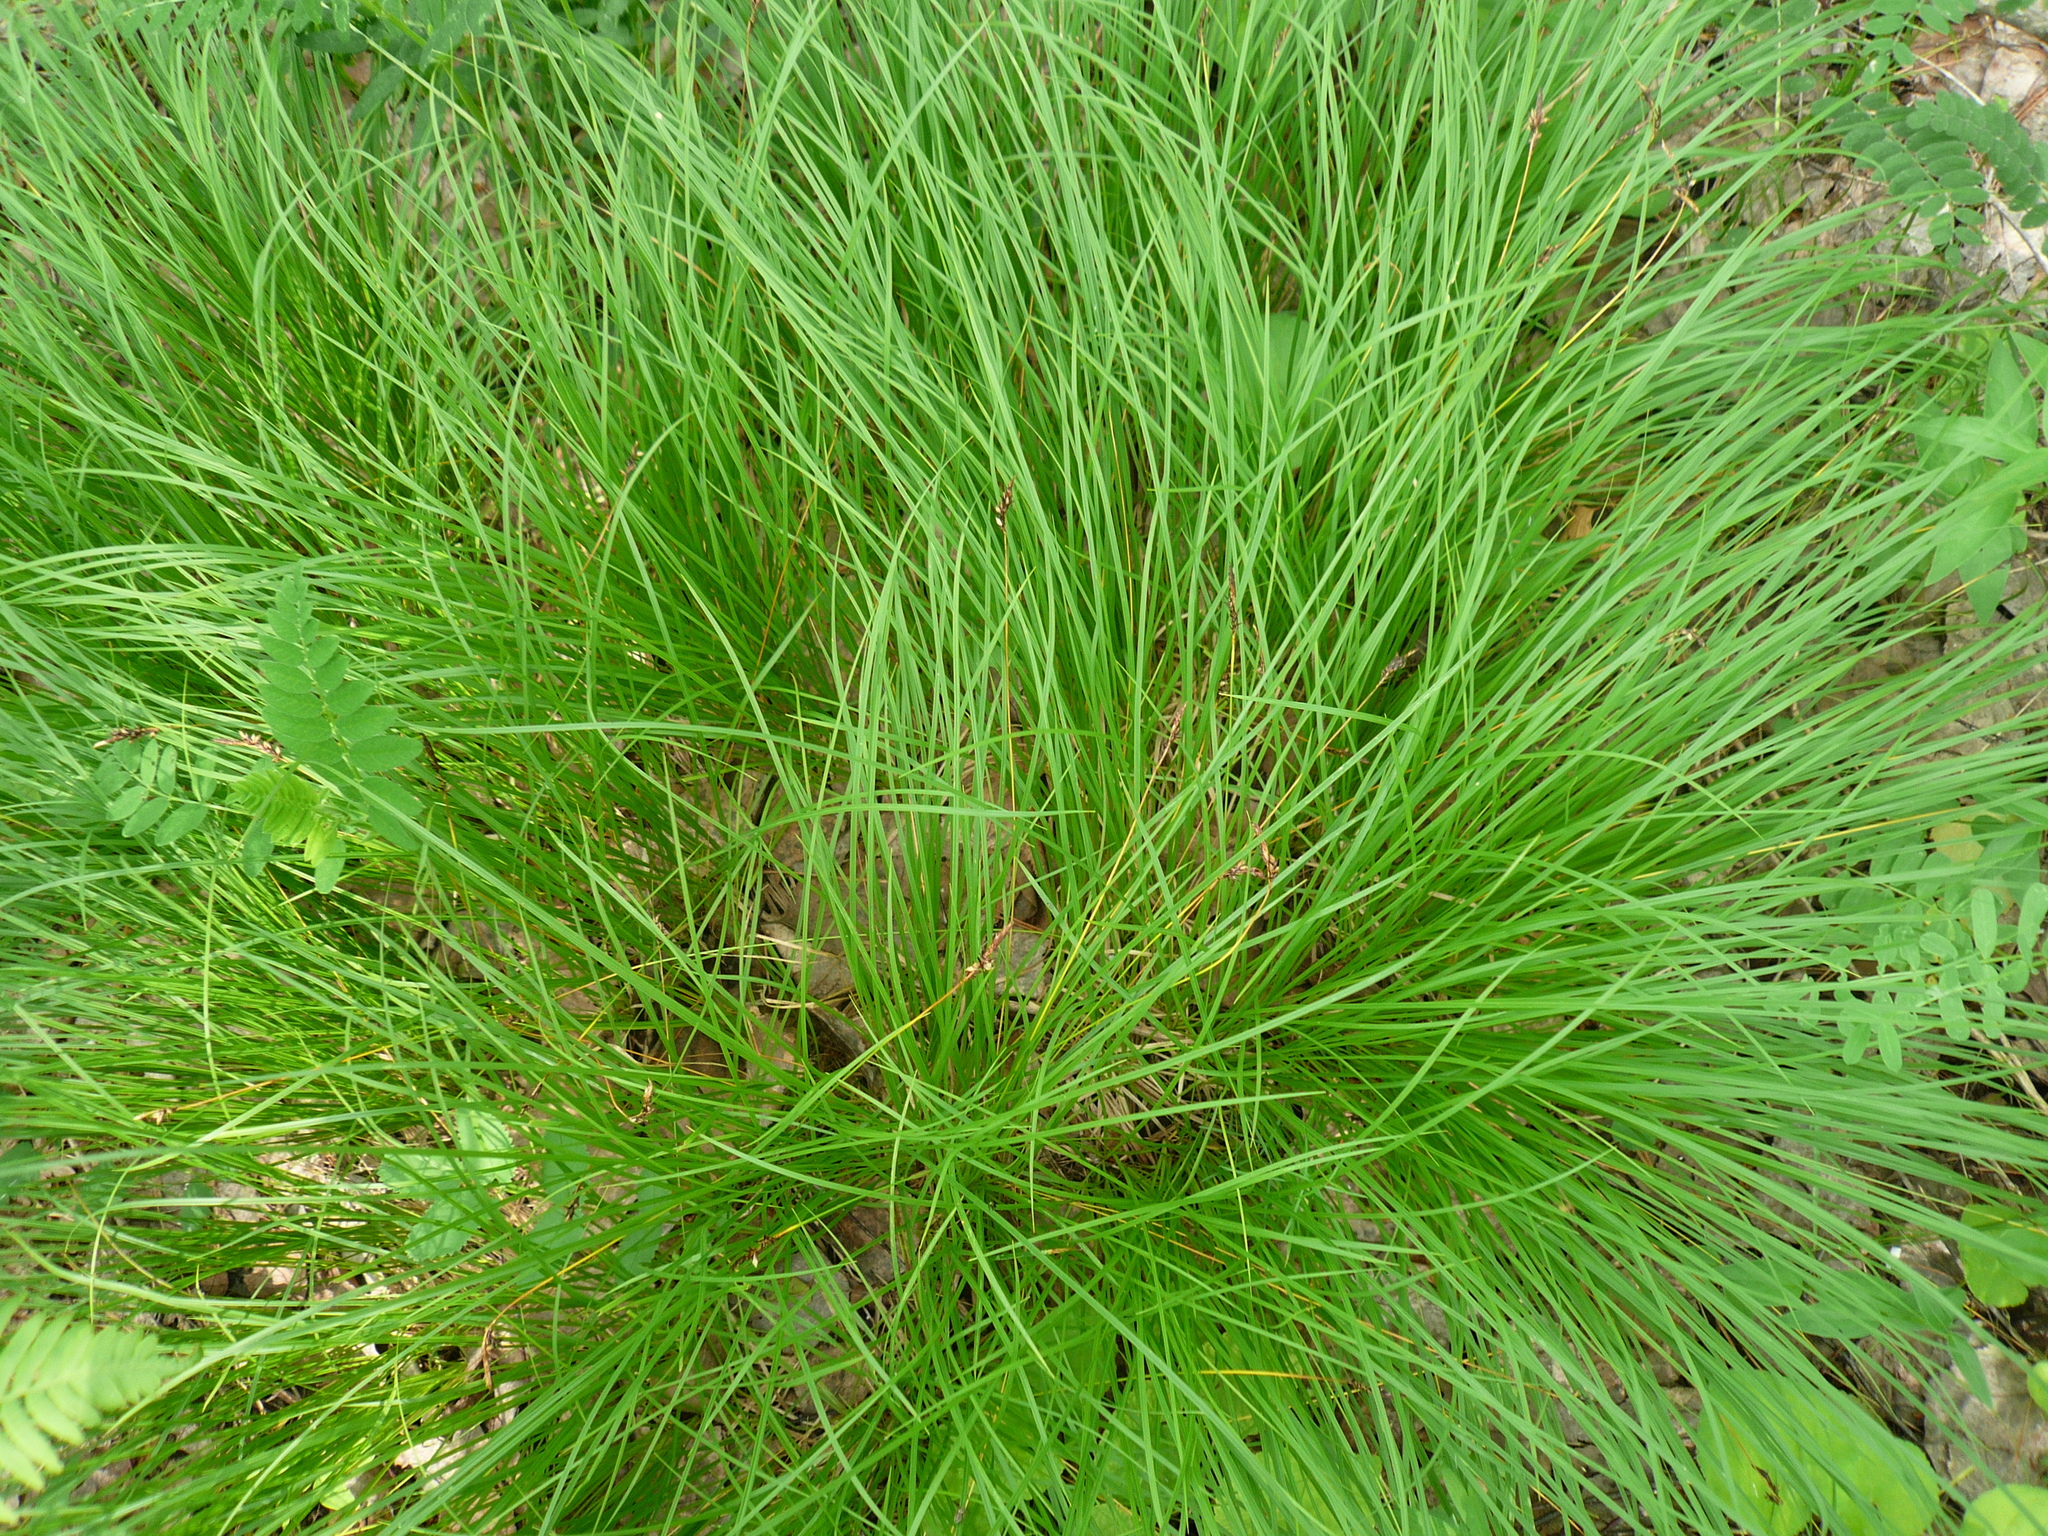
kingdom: Plantae
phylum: Tracheophyta
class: Liliopsida
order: Poales
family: Cyperaceae
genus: Carex
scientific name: Carex montana
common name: Soft-leaved sedge
